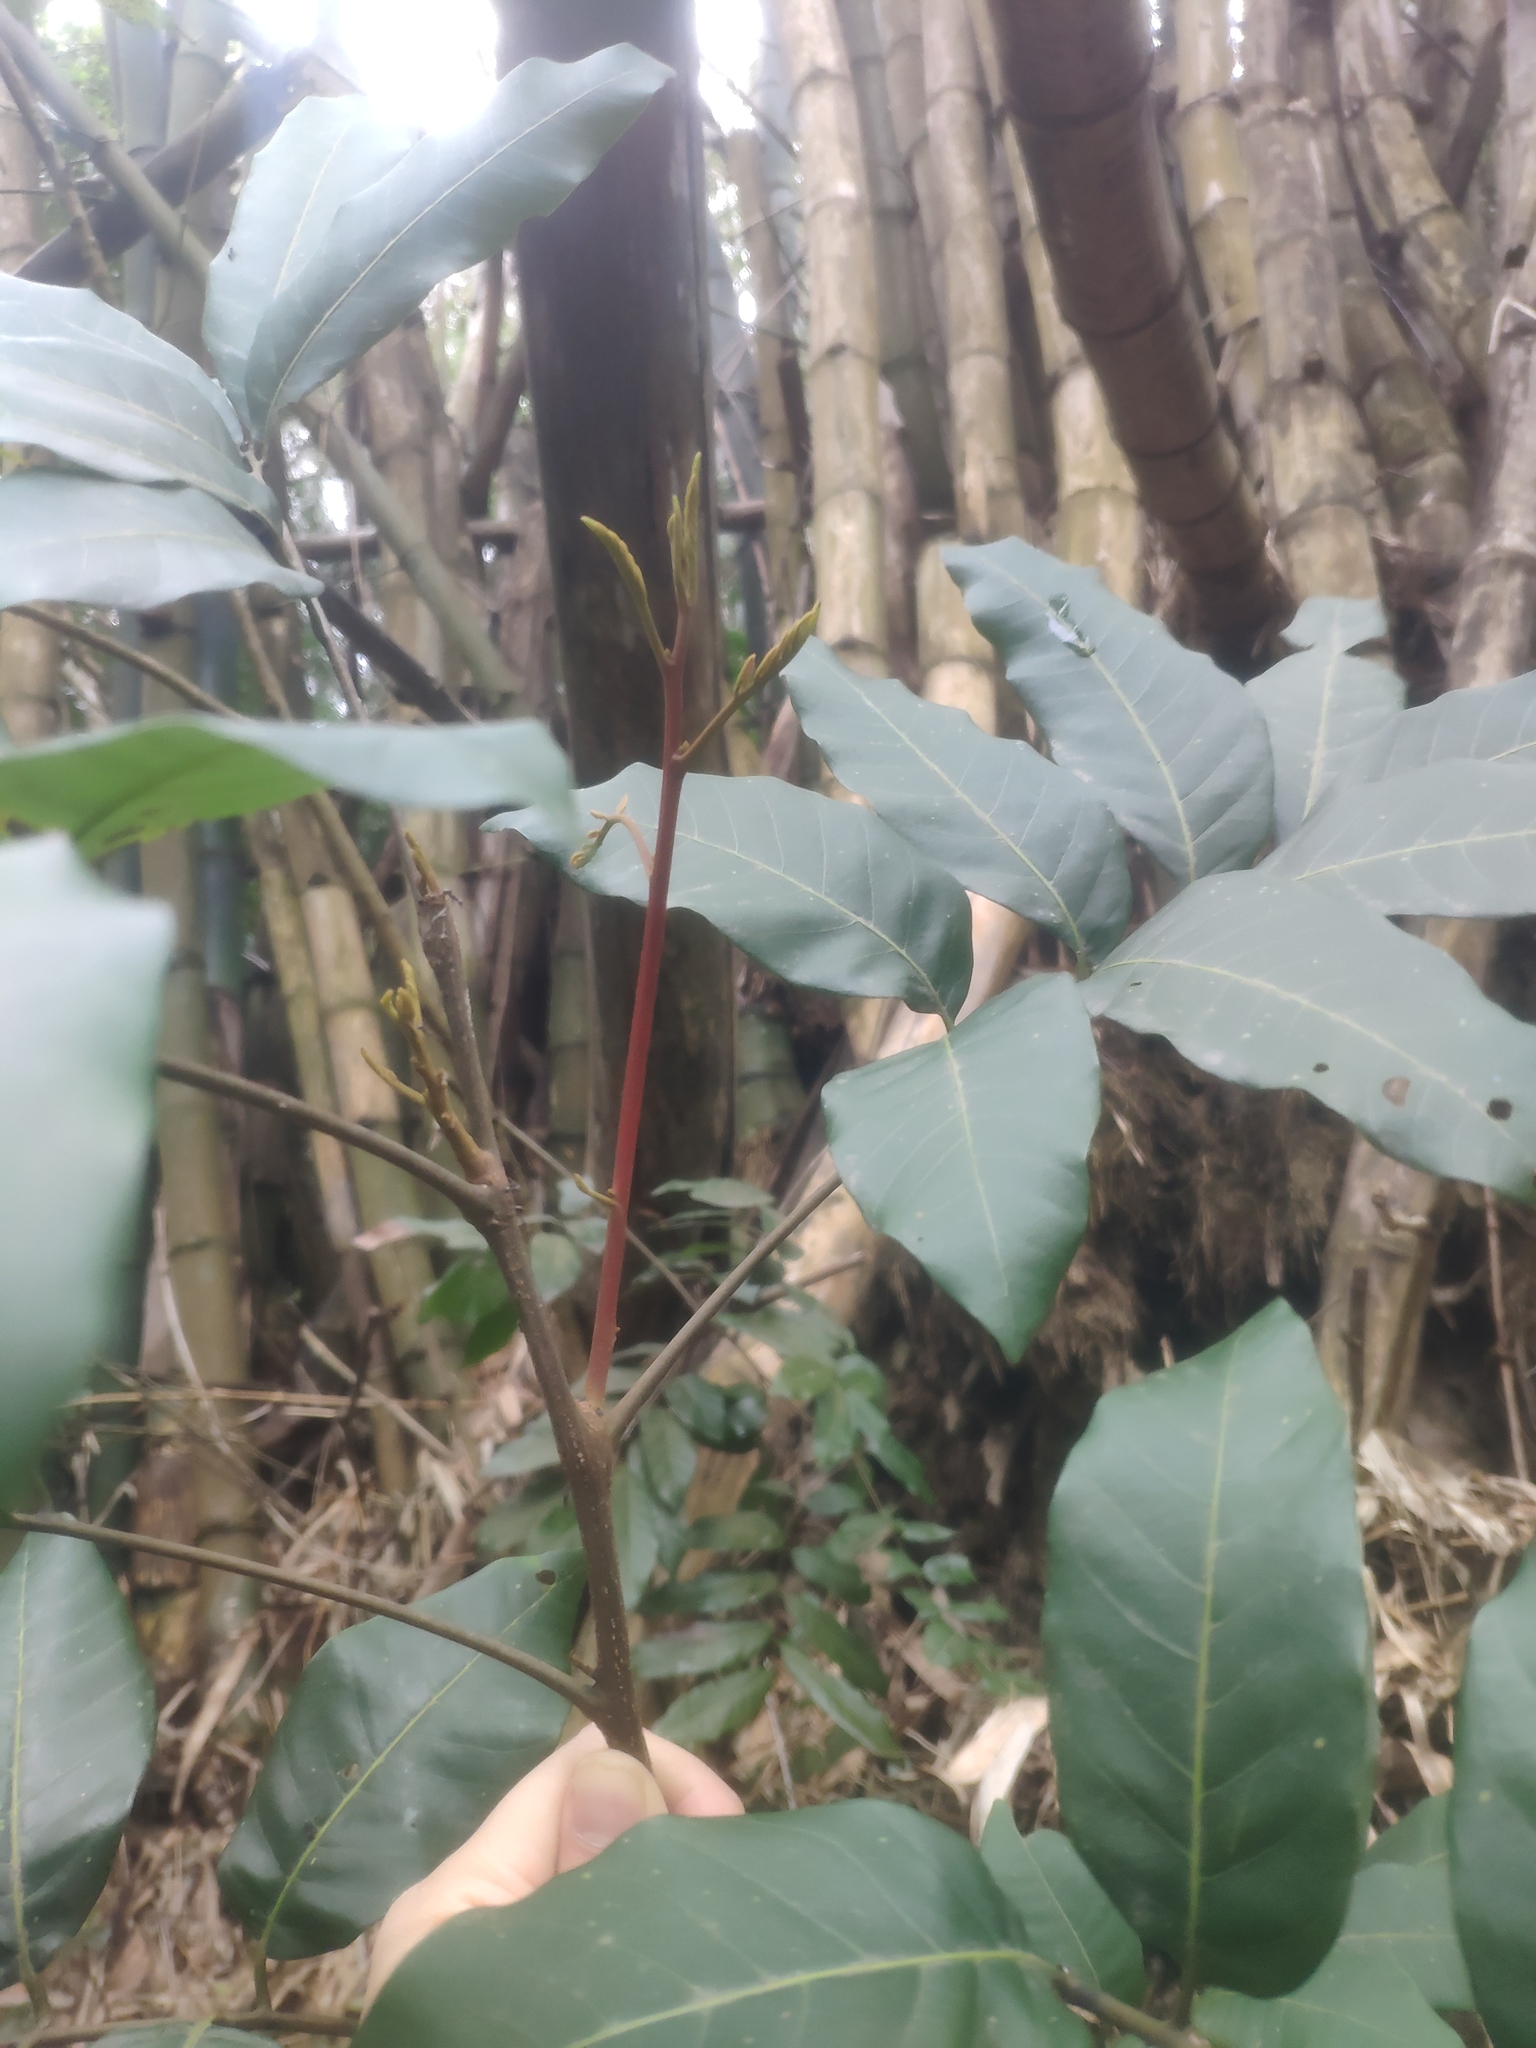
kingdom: Plantae
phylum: Tracheophyta
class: Magnoliopsida
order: Sapindales
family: Sapindaceae
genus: Dimocarpus
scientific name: Dimocarpus longan
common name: Longan
